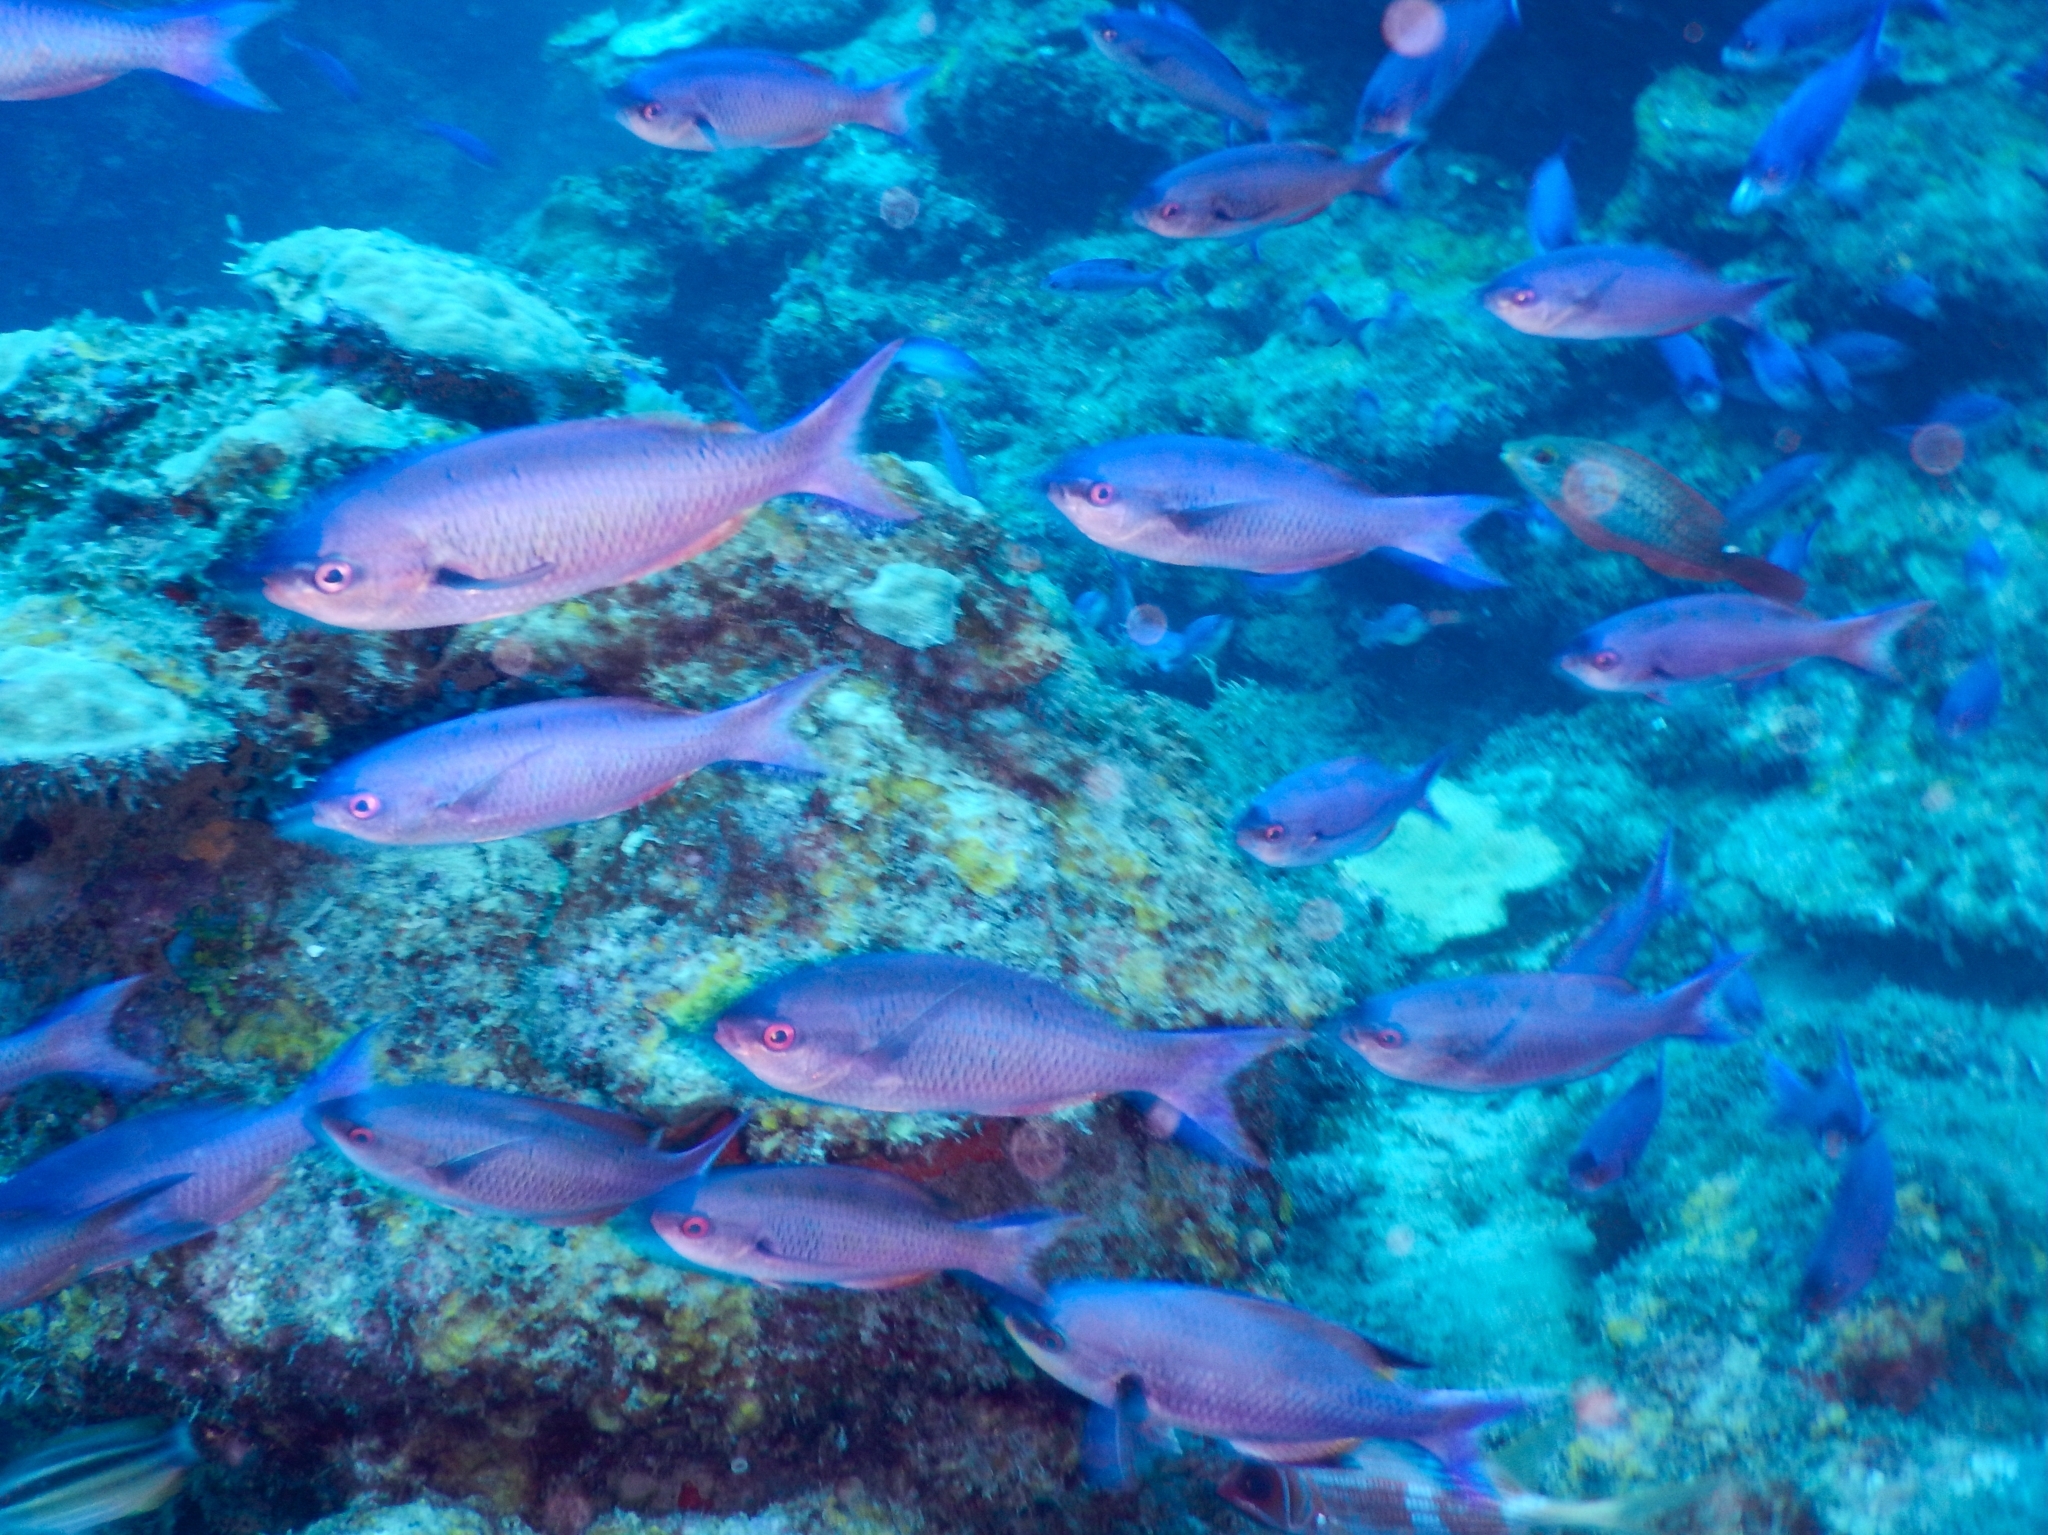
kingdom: Animalia
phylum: Chordata
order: Perciformes
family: Labridae
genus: Bodianus
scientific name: Bodianus
